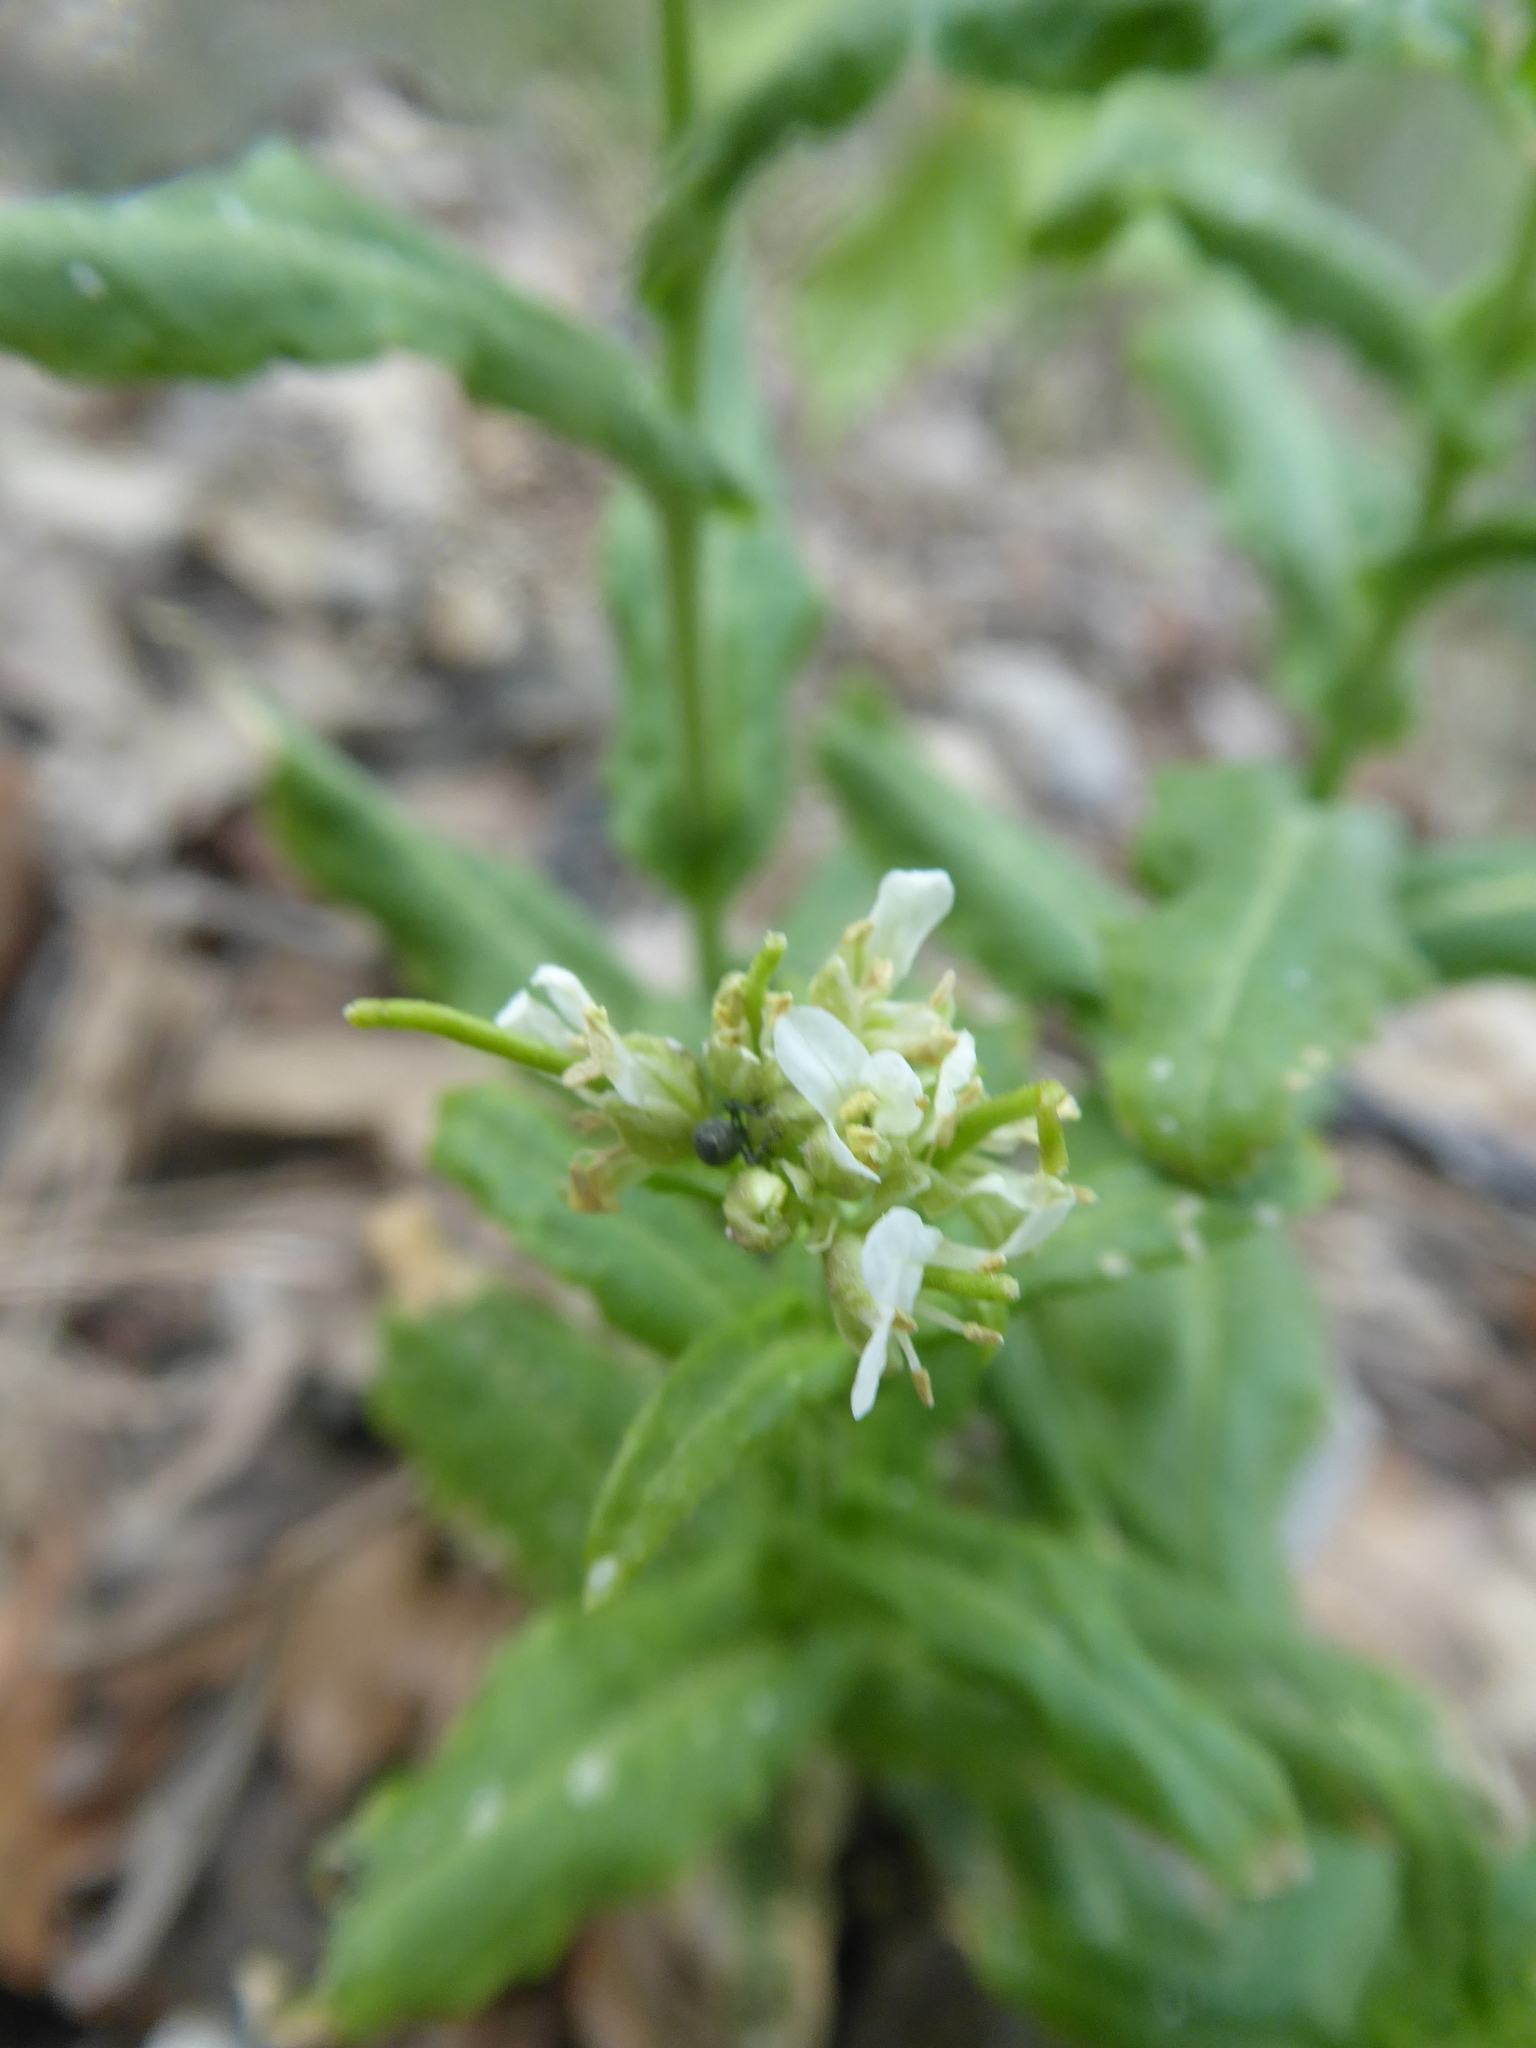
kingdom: Plantae
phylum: Tracheophyta
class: Magnoliopsida
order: Brassicales
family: Brassicaceae
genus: Pseudoturritis
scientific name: Pseudoturritis turrita
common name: Tower cress
